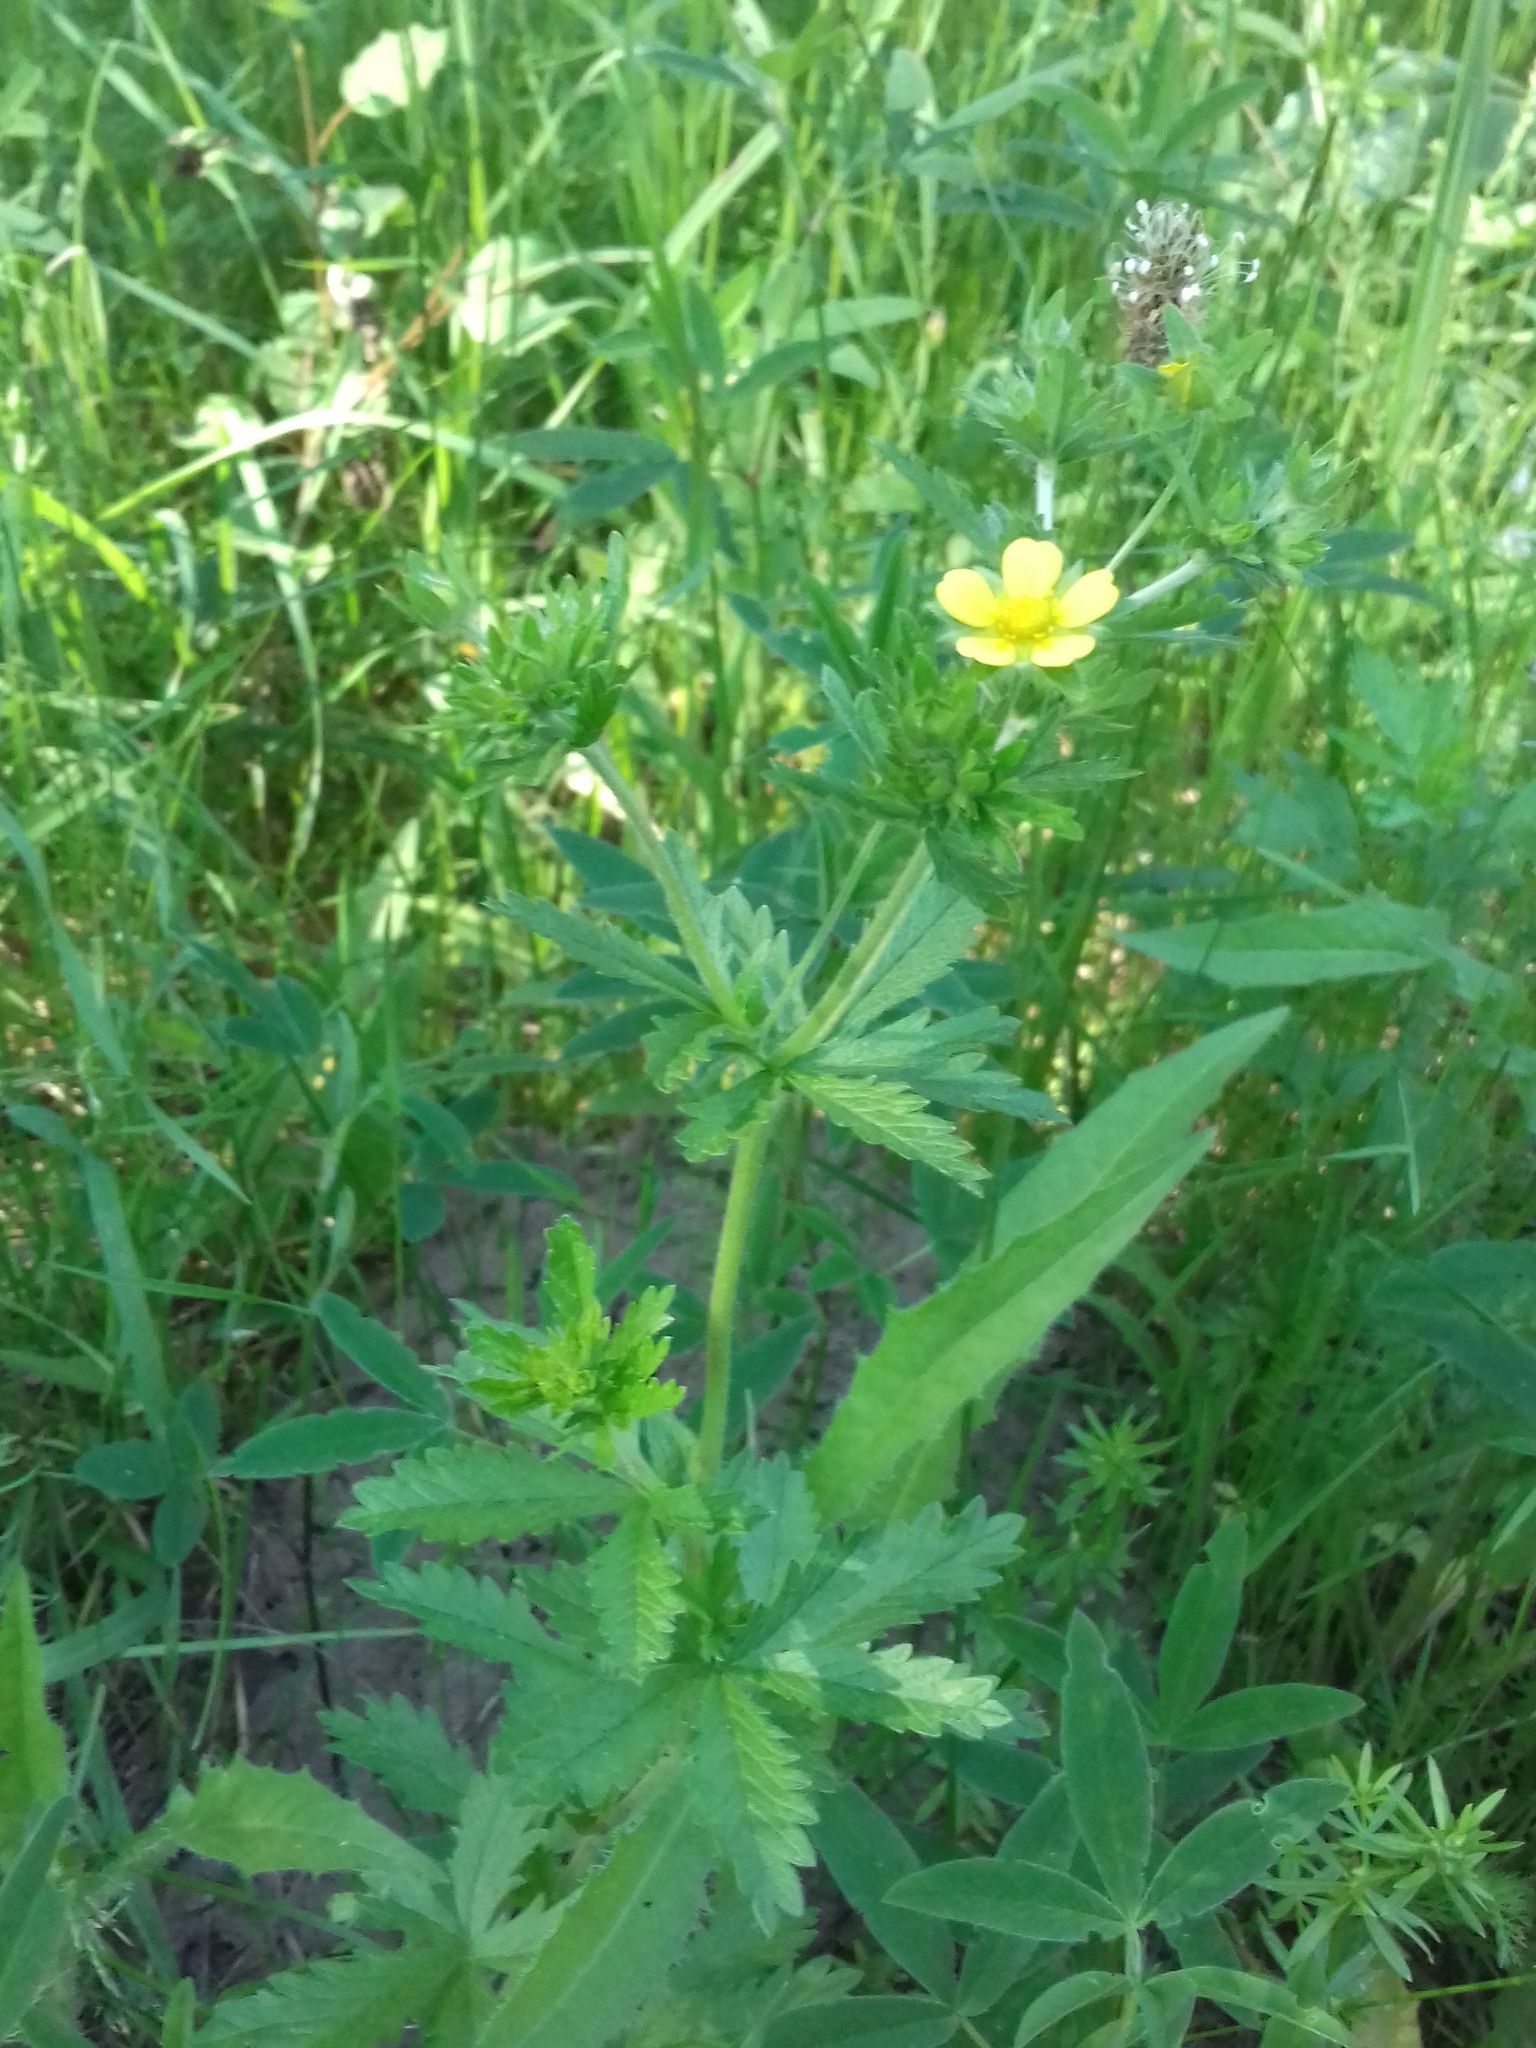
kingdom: Plantae
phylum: Tracheophyta
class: Magnoliopsida
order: Rosales
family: Rosaceae
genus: Potentilla
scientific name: Potentilla intermedia
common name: Downy cinquefoil
